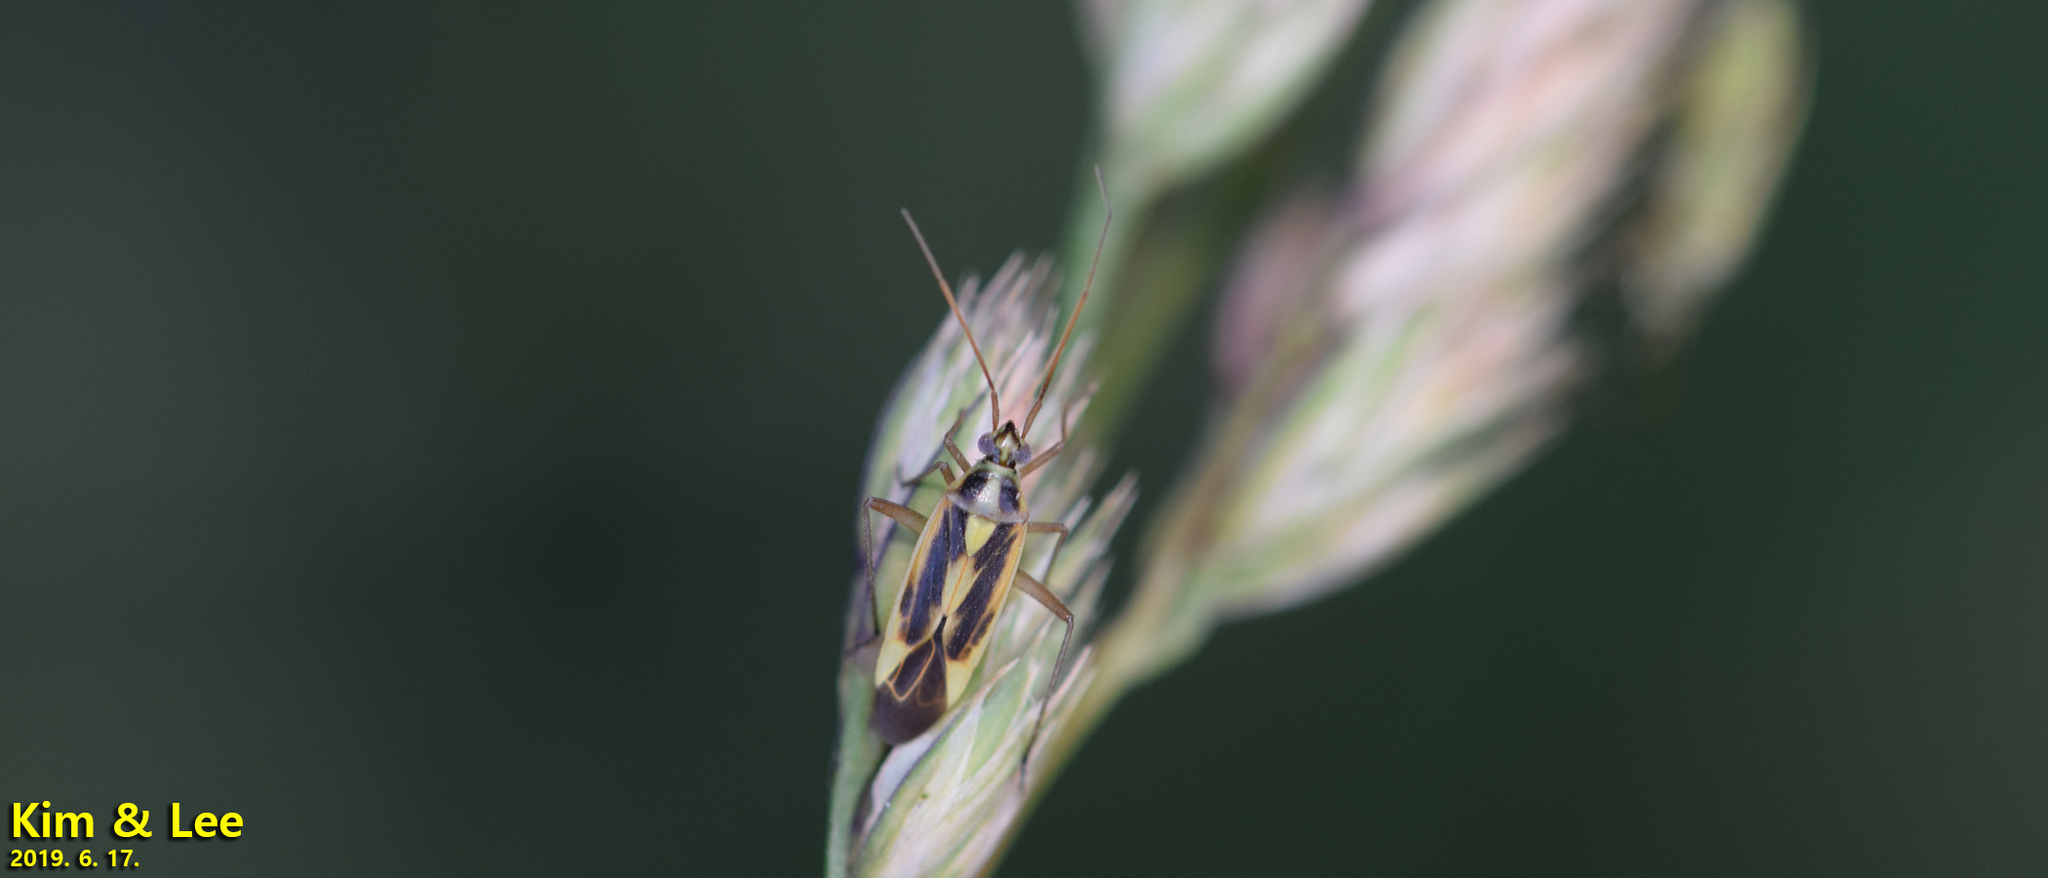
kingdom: Animalia
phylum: Arthropoda
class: Insecta
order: Hemiptera
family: Miridae
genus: Stenotus
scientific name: Stenotus binotatus
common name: Plant bug
